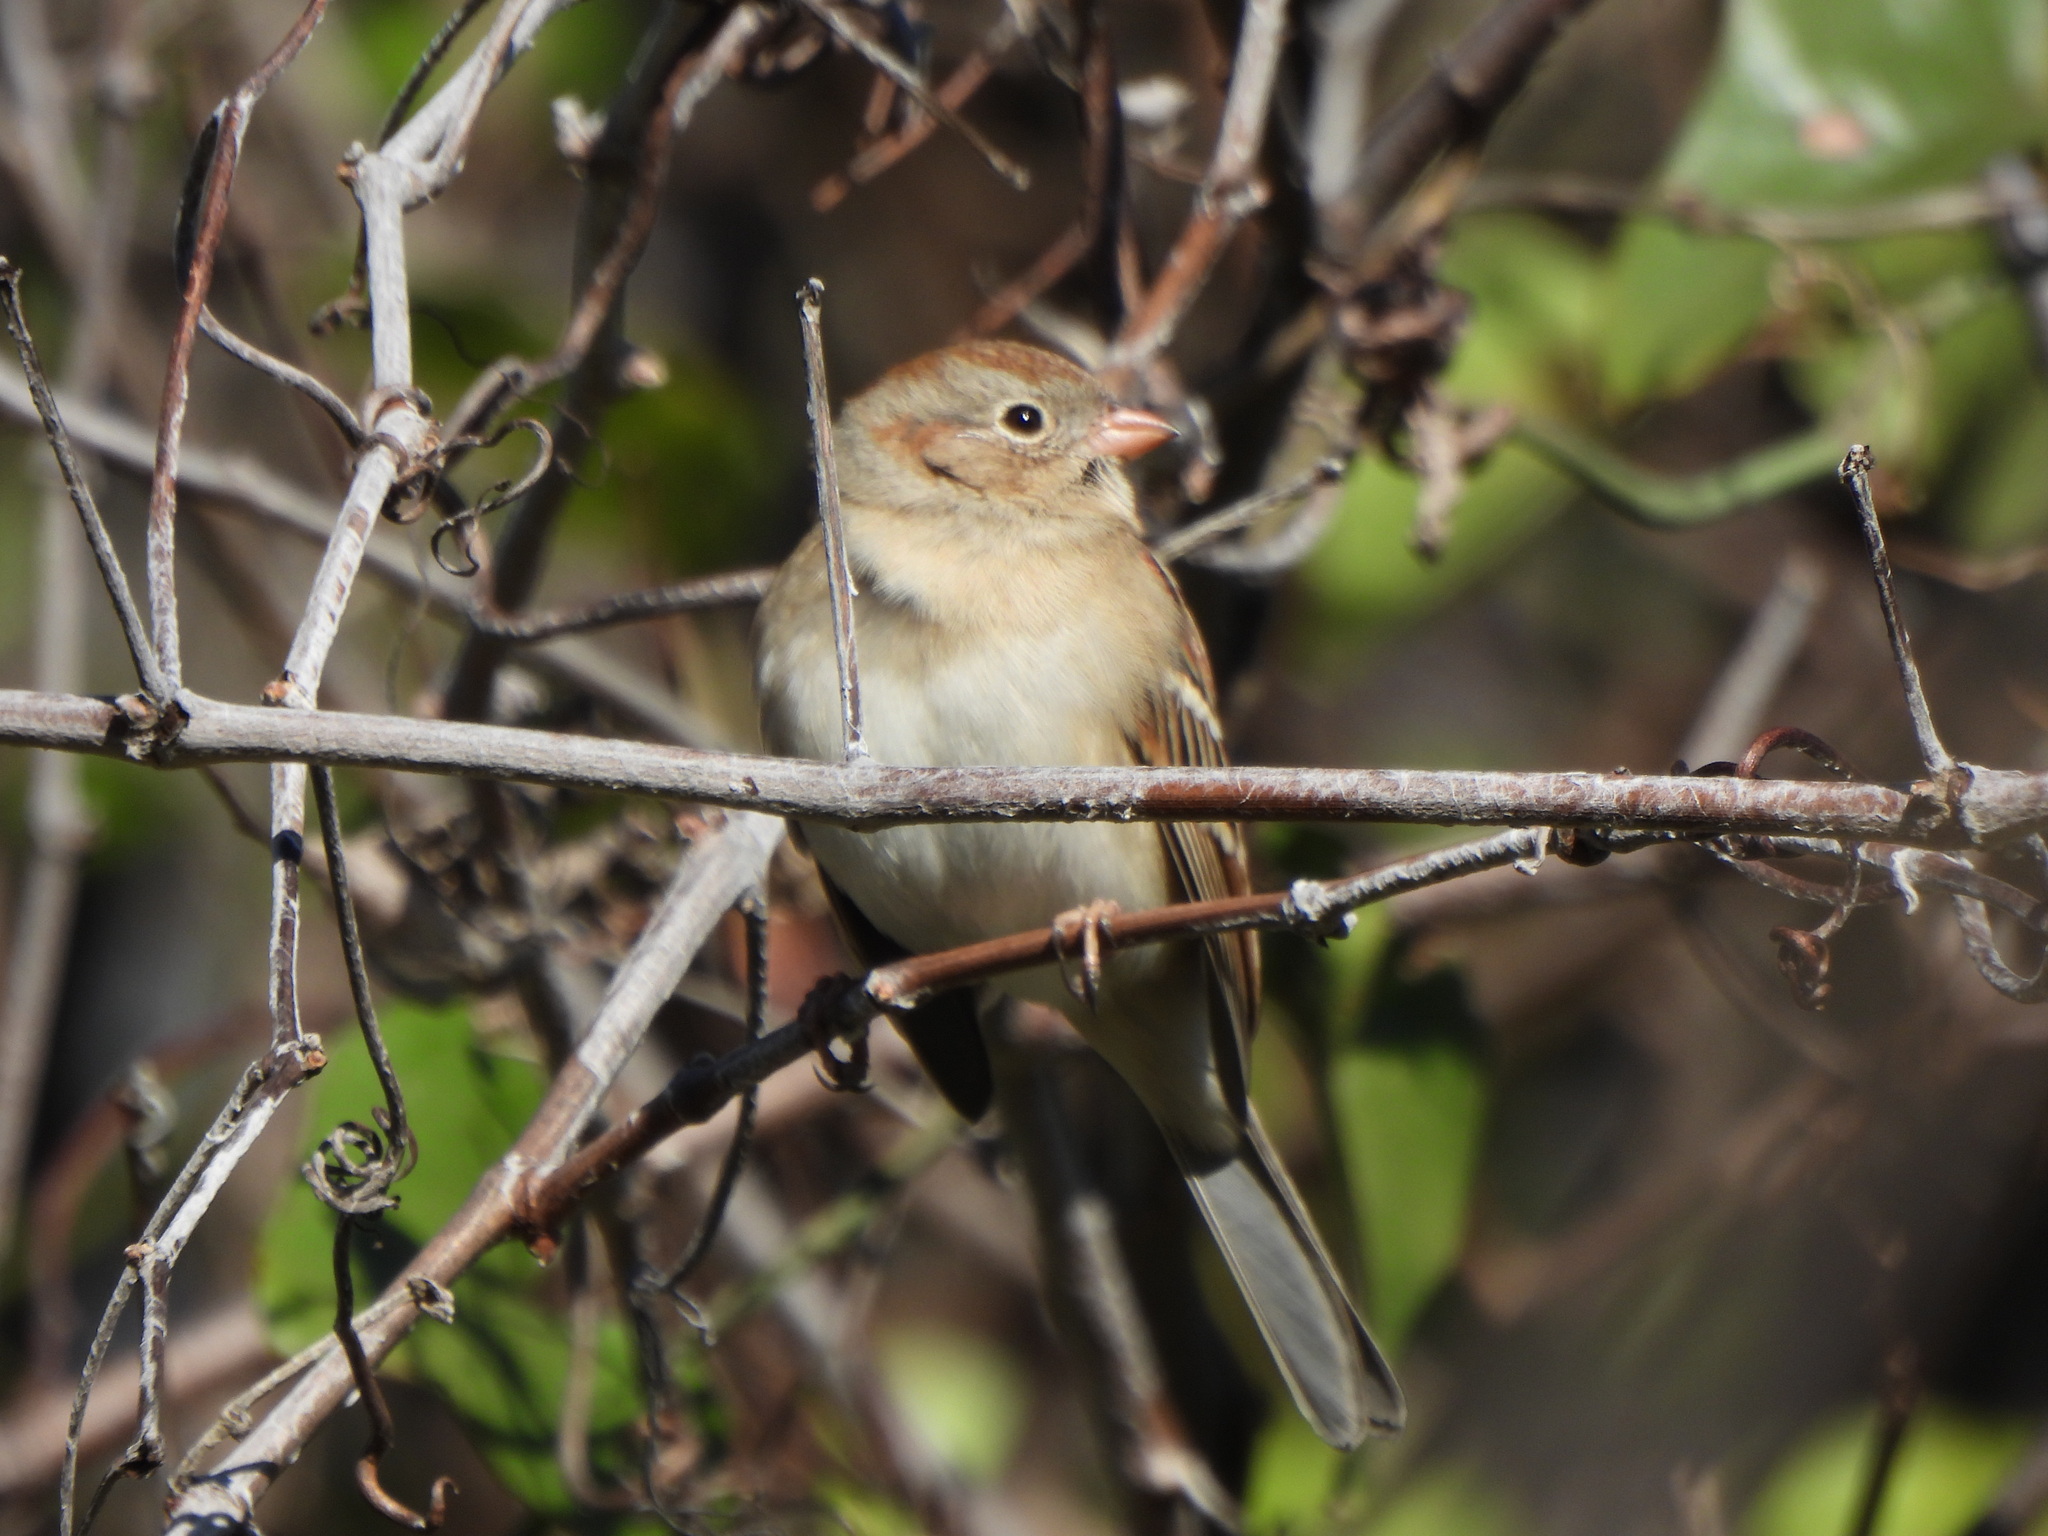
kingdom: Animalia
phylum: Chordata
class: Aves
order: Passeriformes
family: Passerellidae
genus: Spizella
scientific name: Spizella pusilla
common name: Field sparrow
